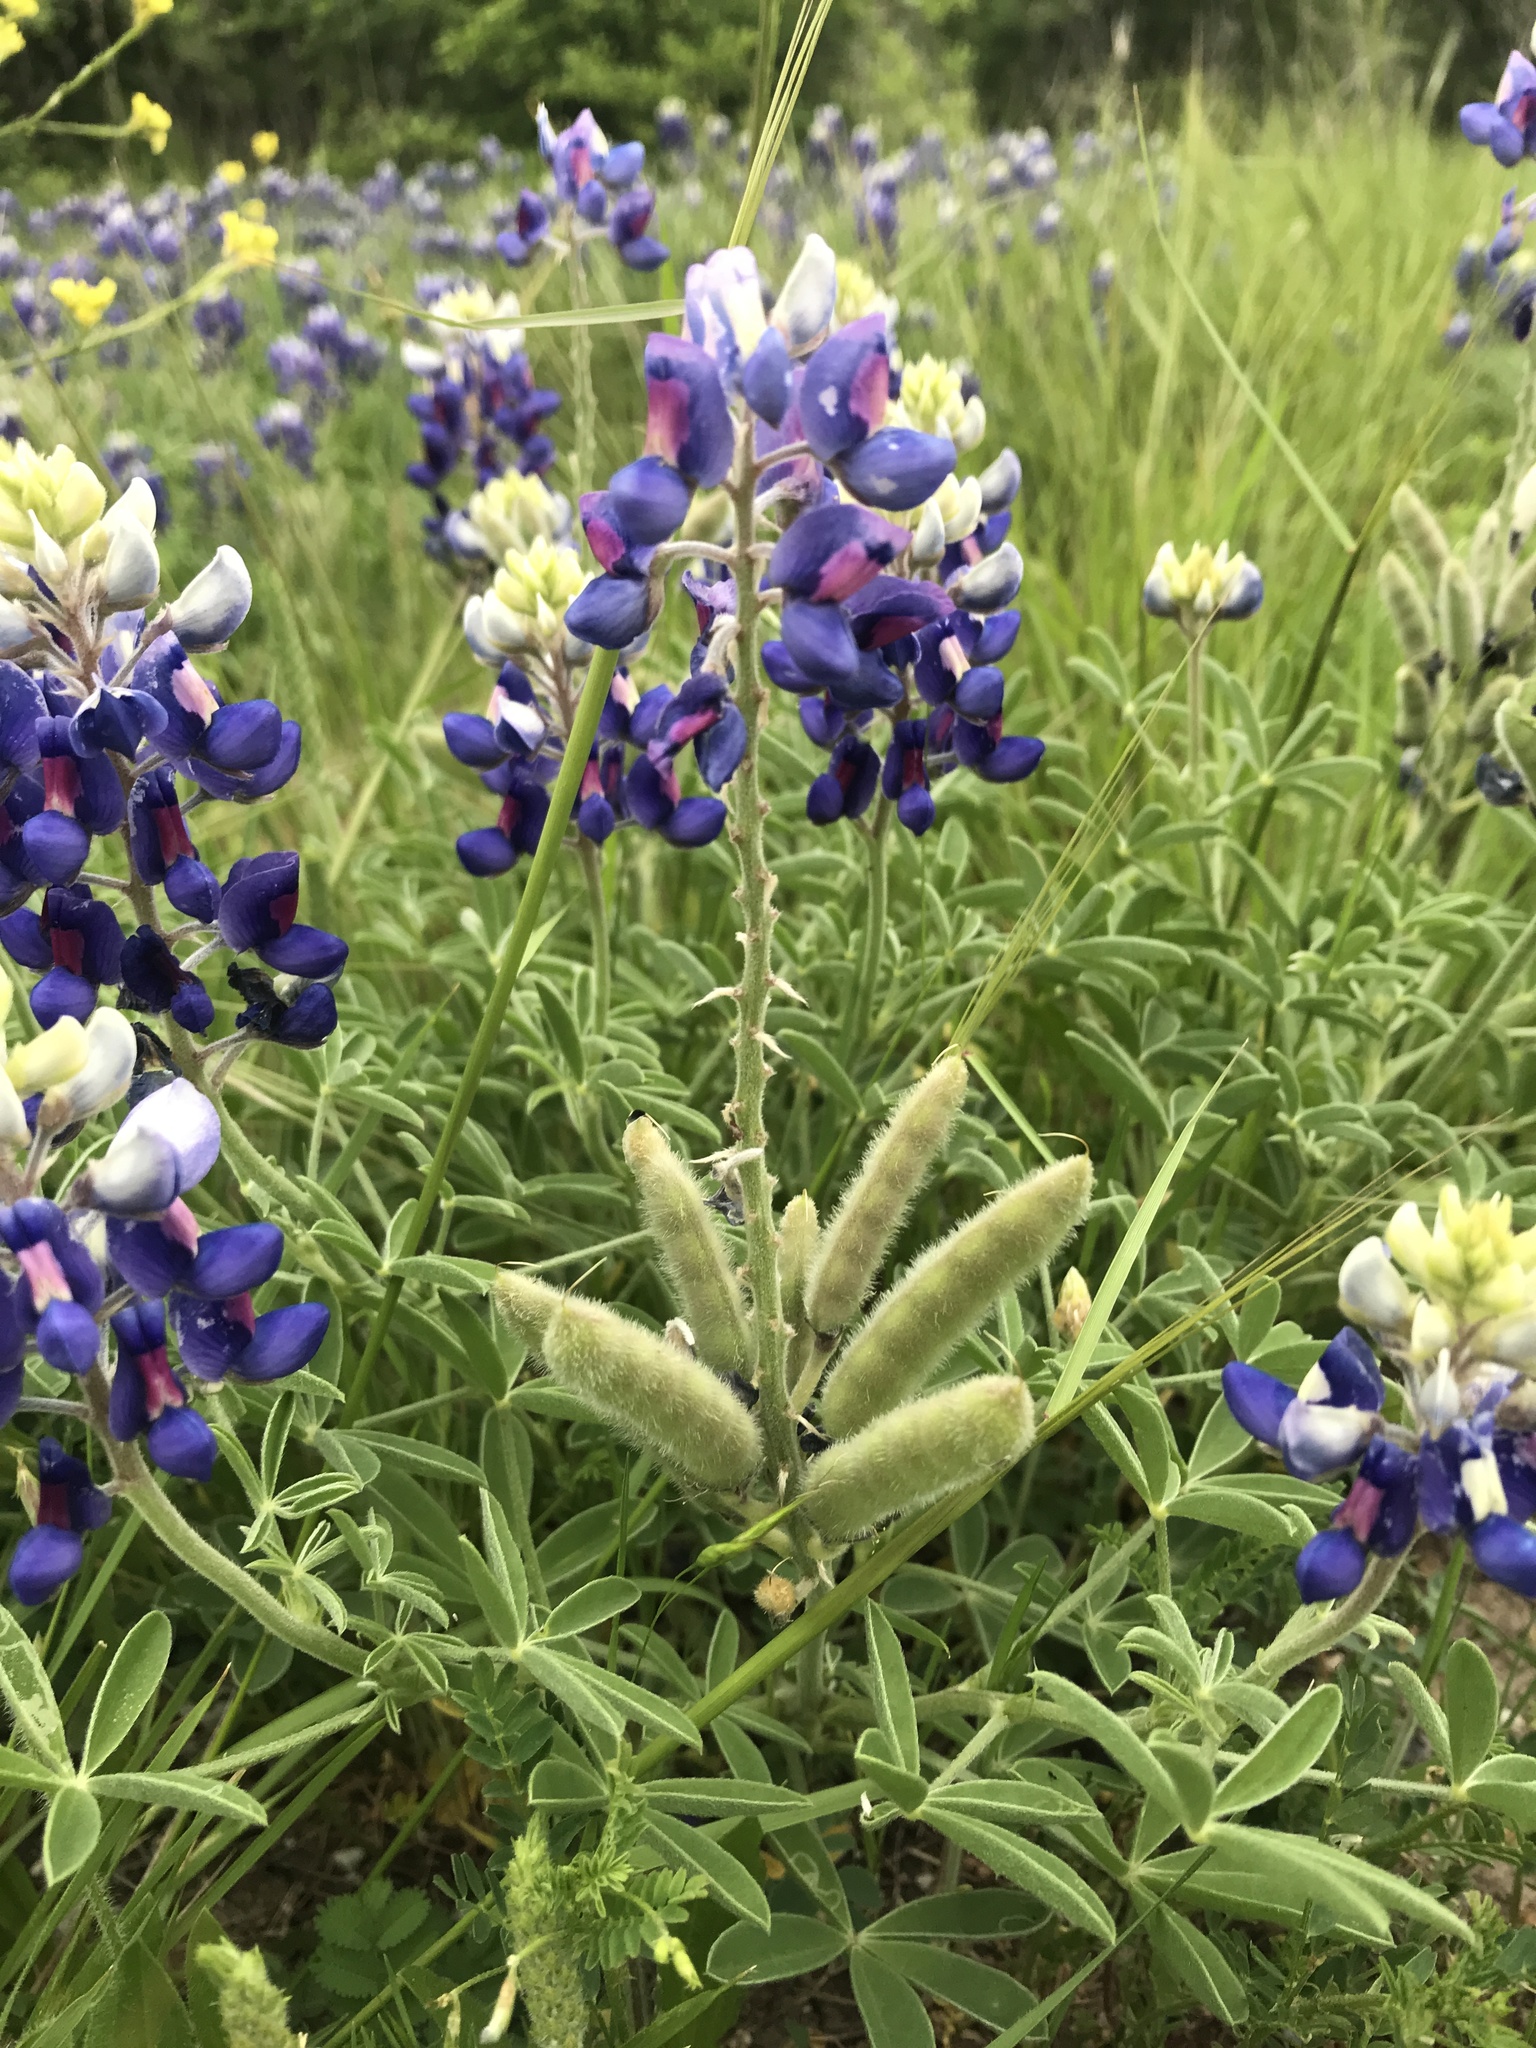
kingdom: Plantae
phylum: Tracheophyta
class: Magnoliopsida
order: Fabales
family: Fabaceae
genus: Lupinus
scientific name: Lupinus texensis
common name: Texas bluebonnet
